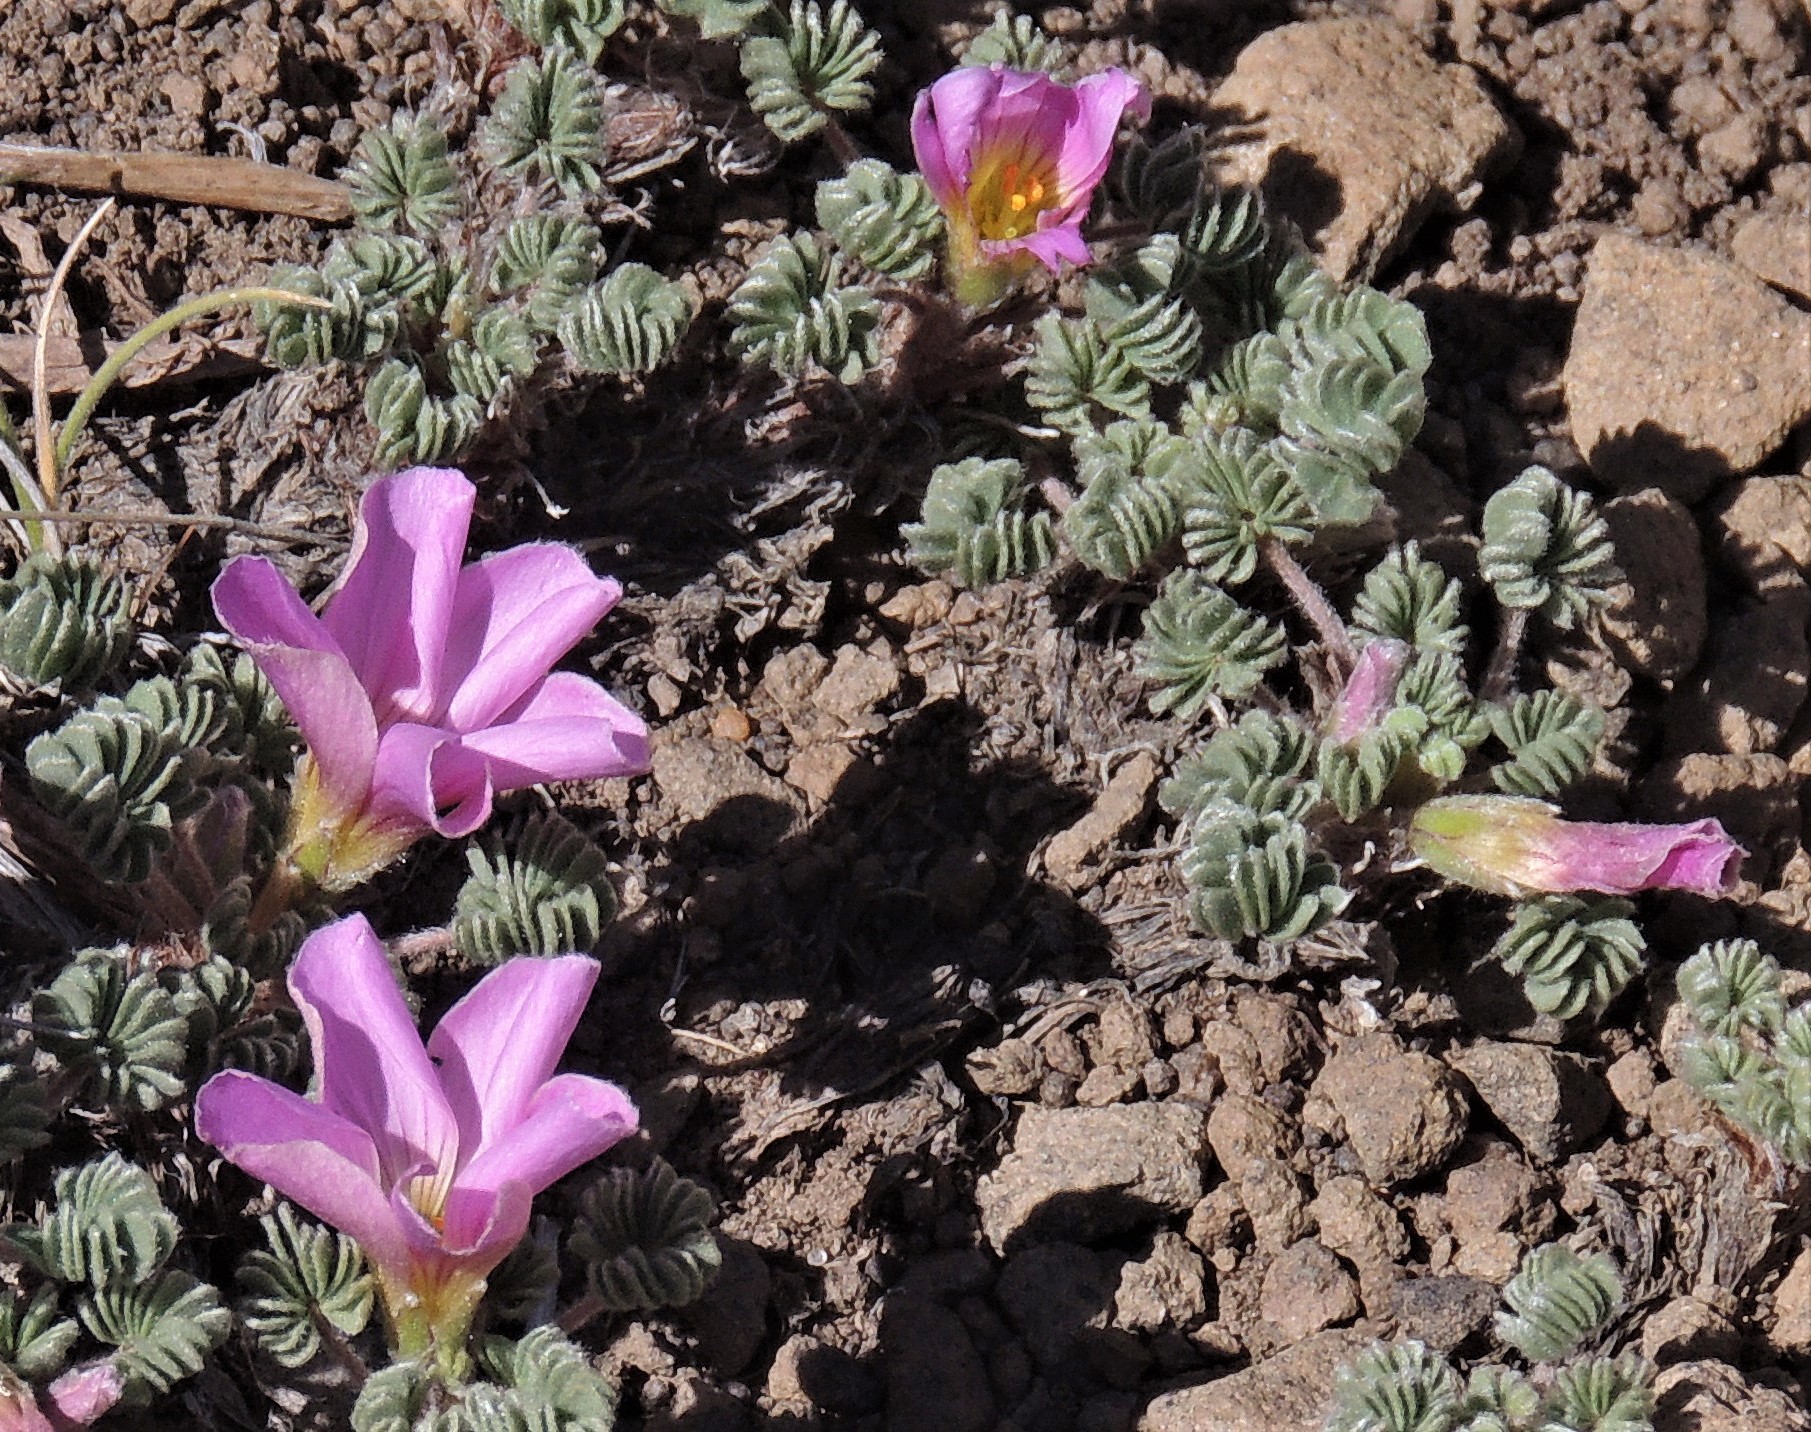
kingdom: Plantae
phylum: Tracheophyta
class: Magnoliopsida
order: Oxalidales
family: Oxalidaceae
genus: Oxalis
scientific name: Oxalis enneaphylla
